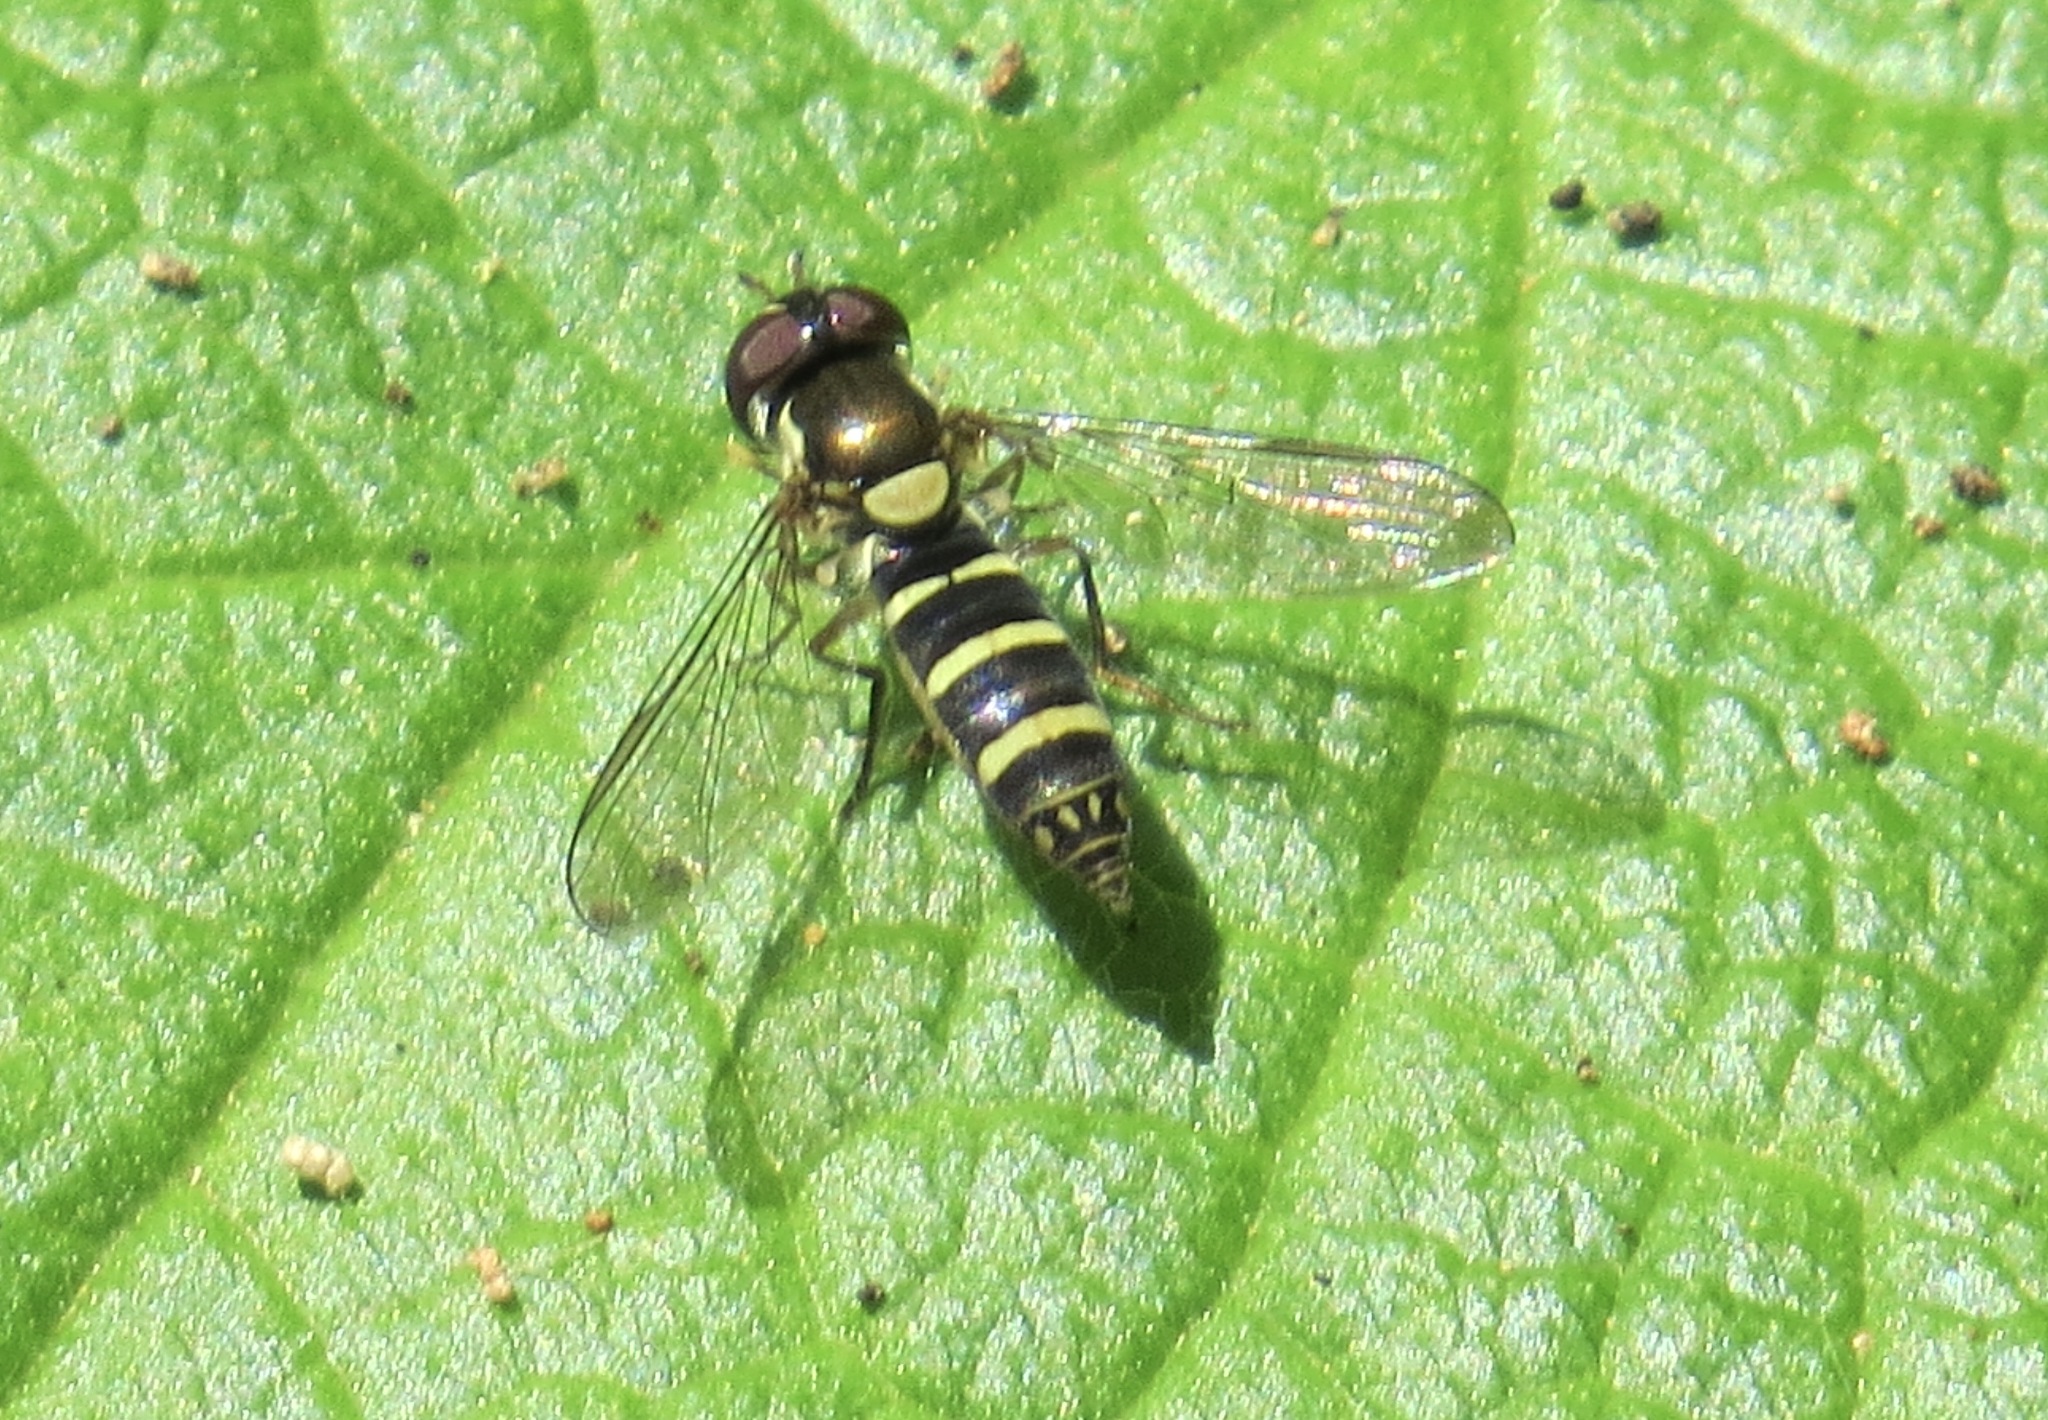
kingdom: Animalia
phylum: Arthropoda
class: Insecta
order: Diptera
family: Syrphidae
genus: Fazia
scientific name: Fazia micrura
